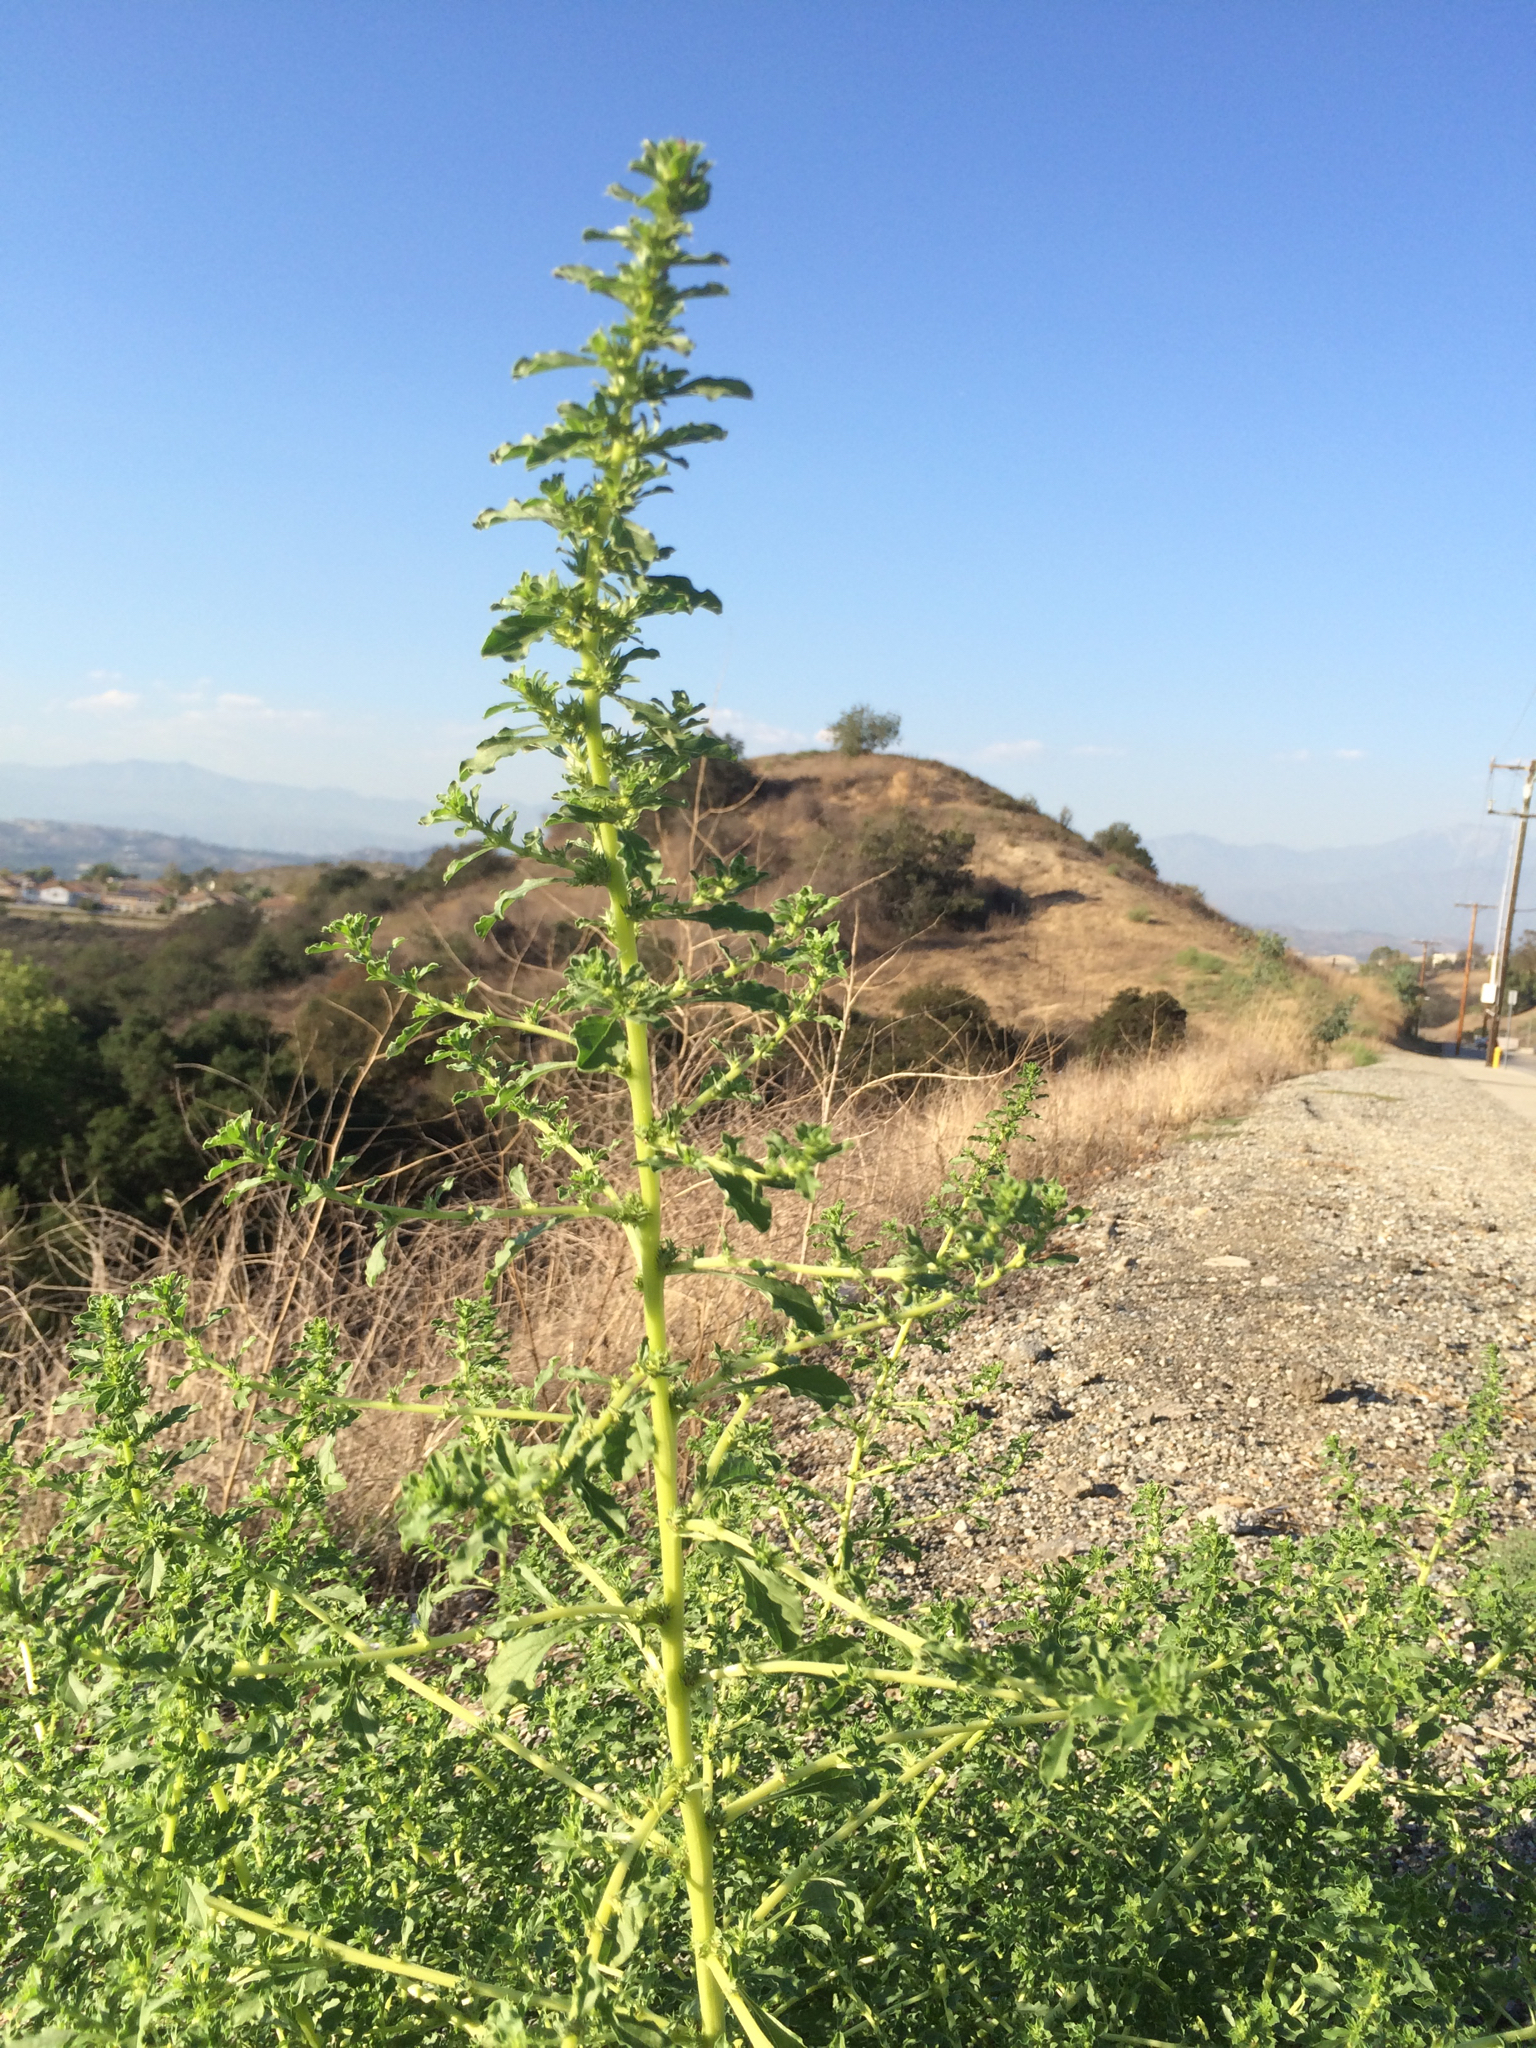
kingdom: Plantae
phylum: Tracheophyta
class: Magnoliopsida
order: Caryophyllales
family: Amaranthaceae
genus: Amaranthus
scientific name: Amaranthus albus
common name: White pigweed
